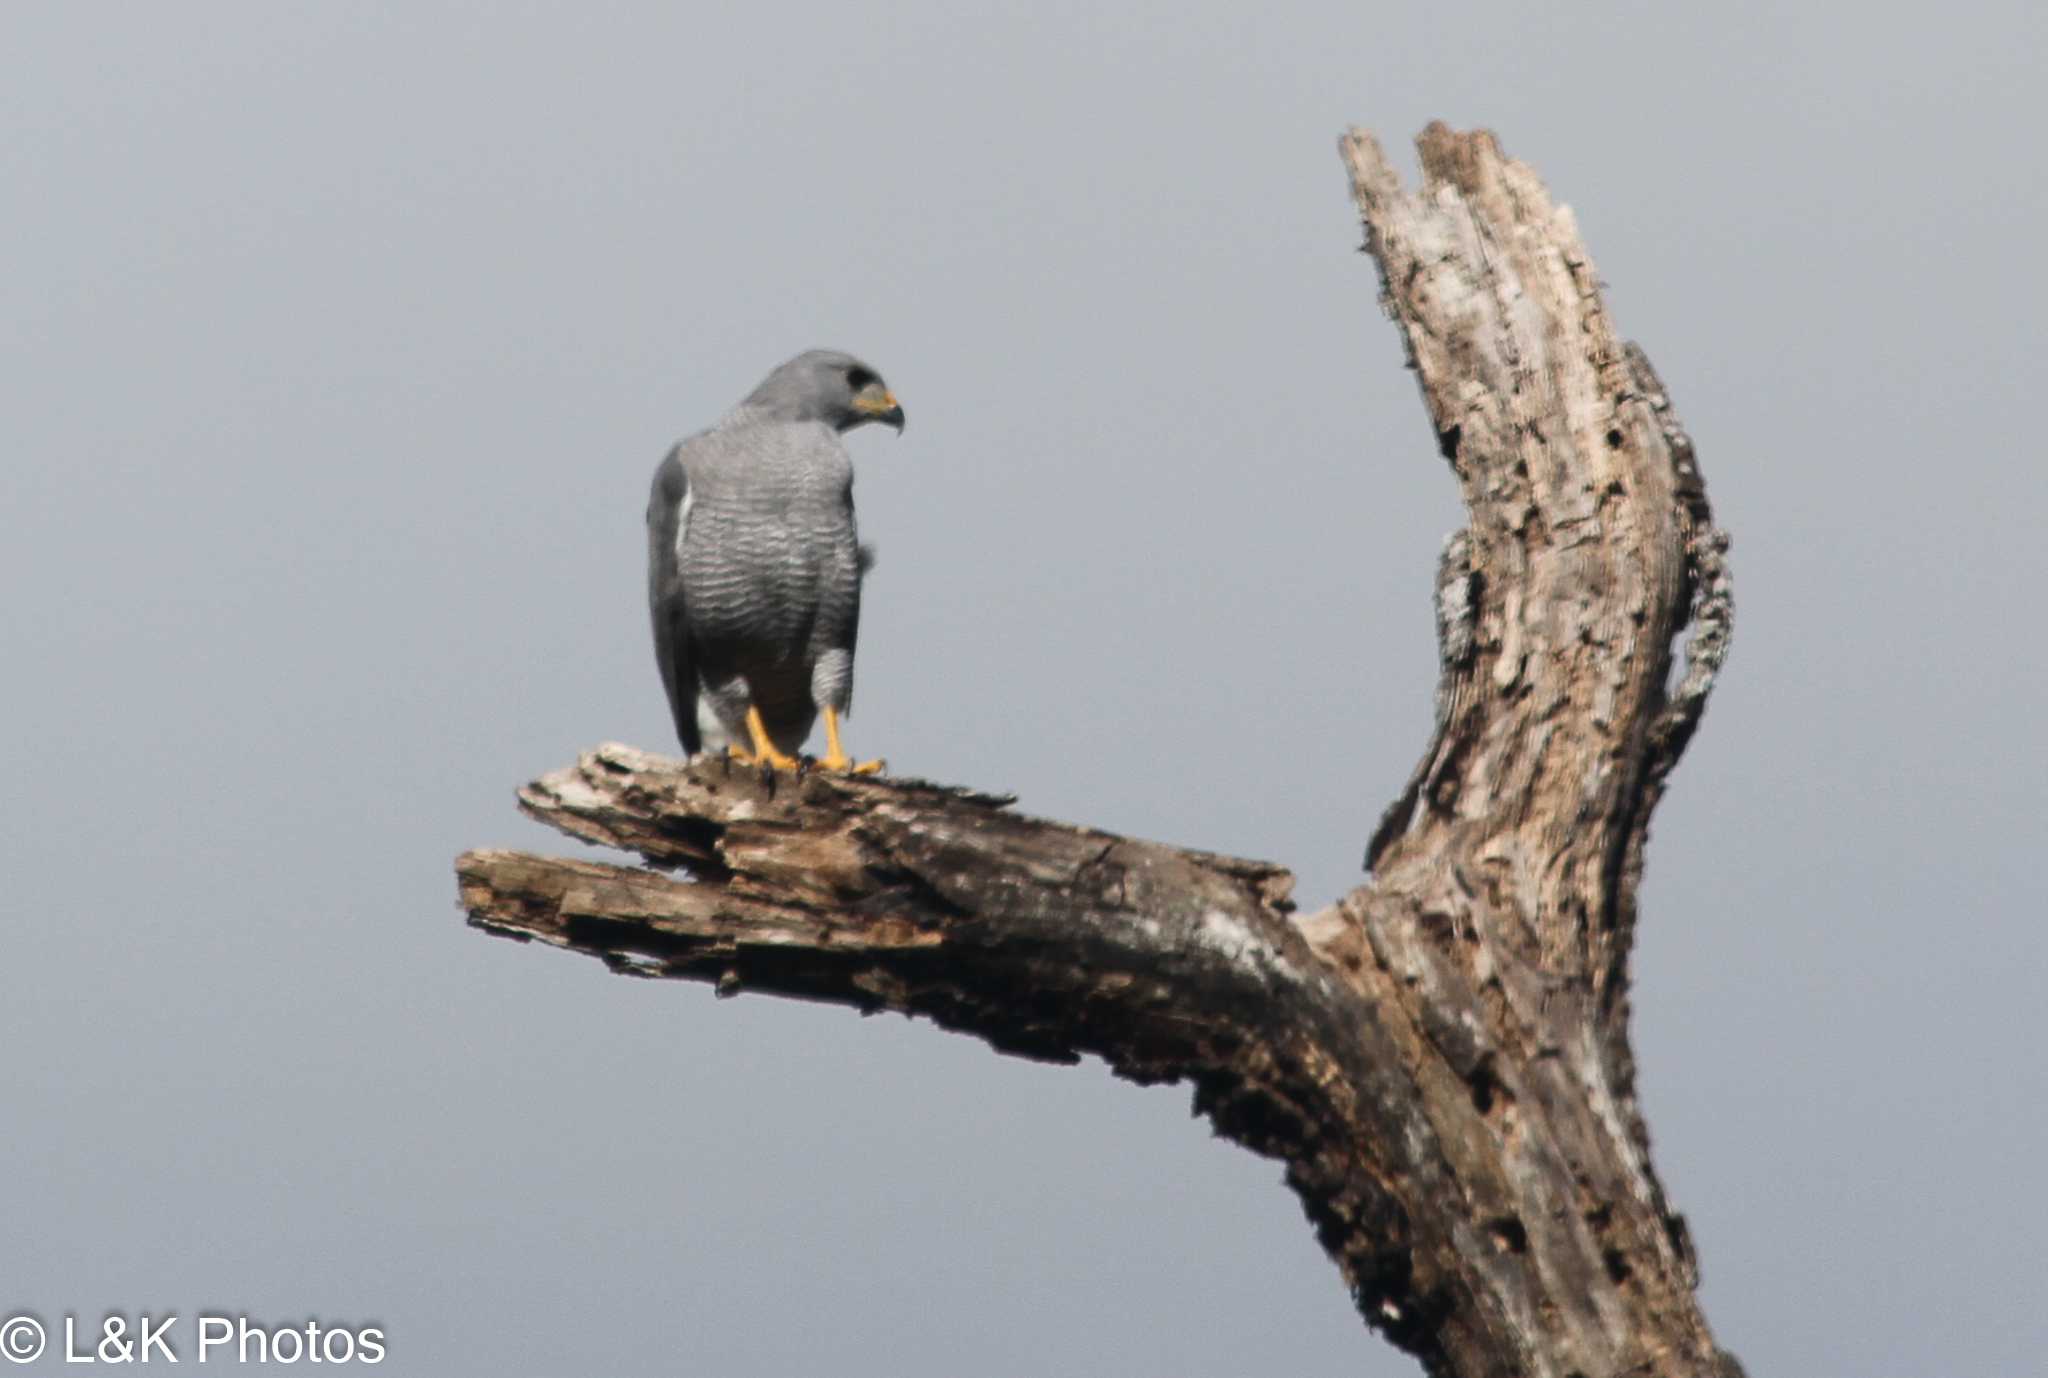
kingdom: Animalia
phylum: Chordata
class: Aves
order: Accipitriformes
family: Accipitridae
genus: Buteo
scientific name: Buteo nitidus
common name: Grey-lined hawk
